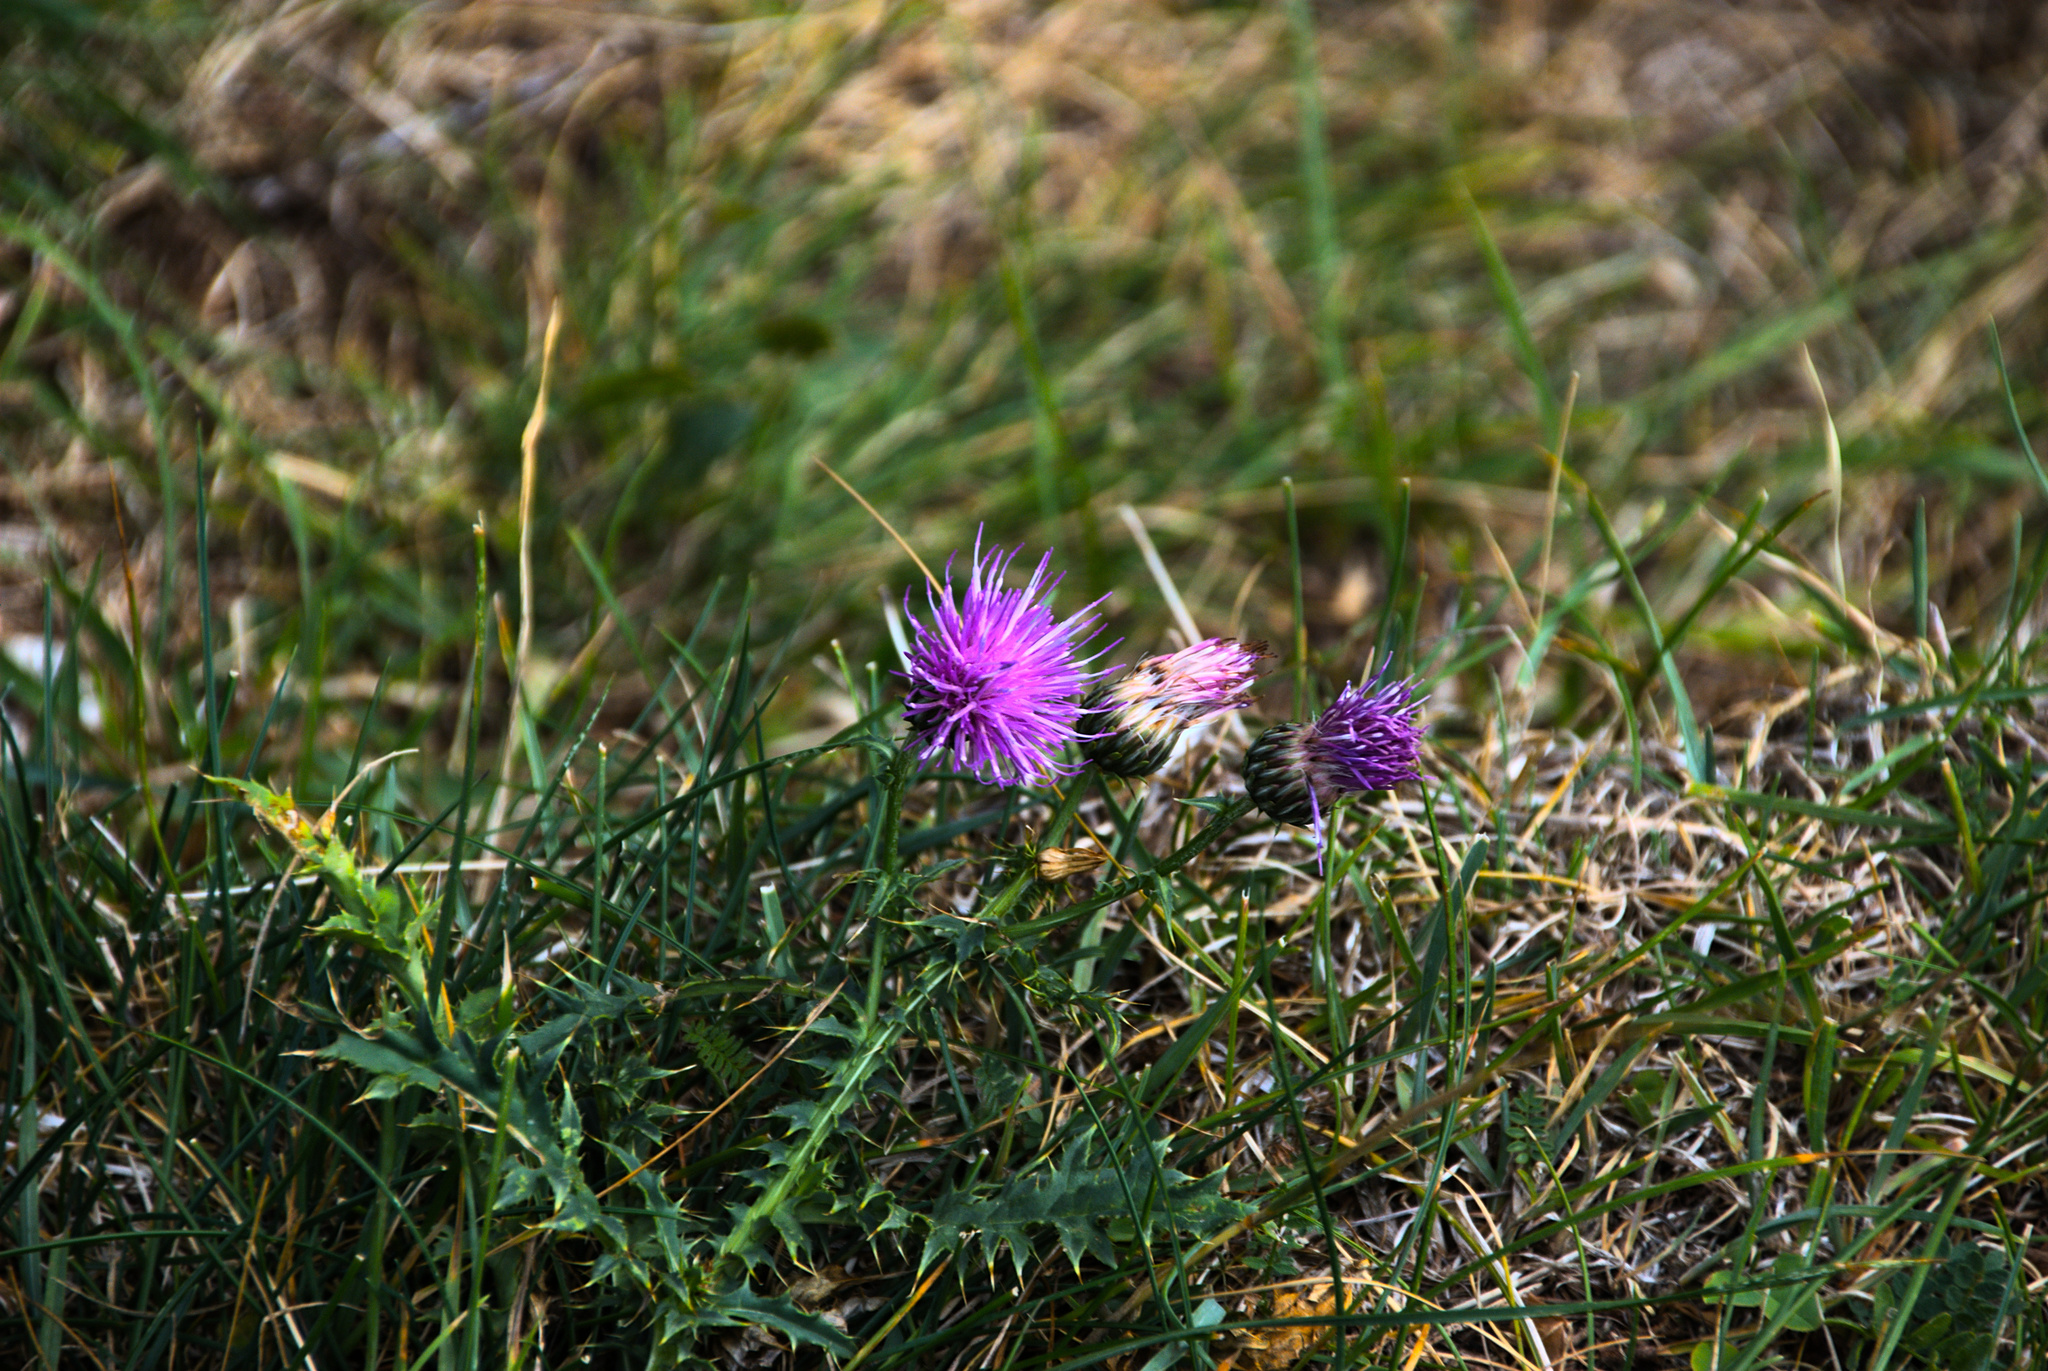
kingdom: Plantae
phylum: Tracheophyta
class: Magnoliopsida
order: Asterales
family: Asteraceae
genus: Cirsium
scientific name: Cirsium acaulon
